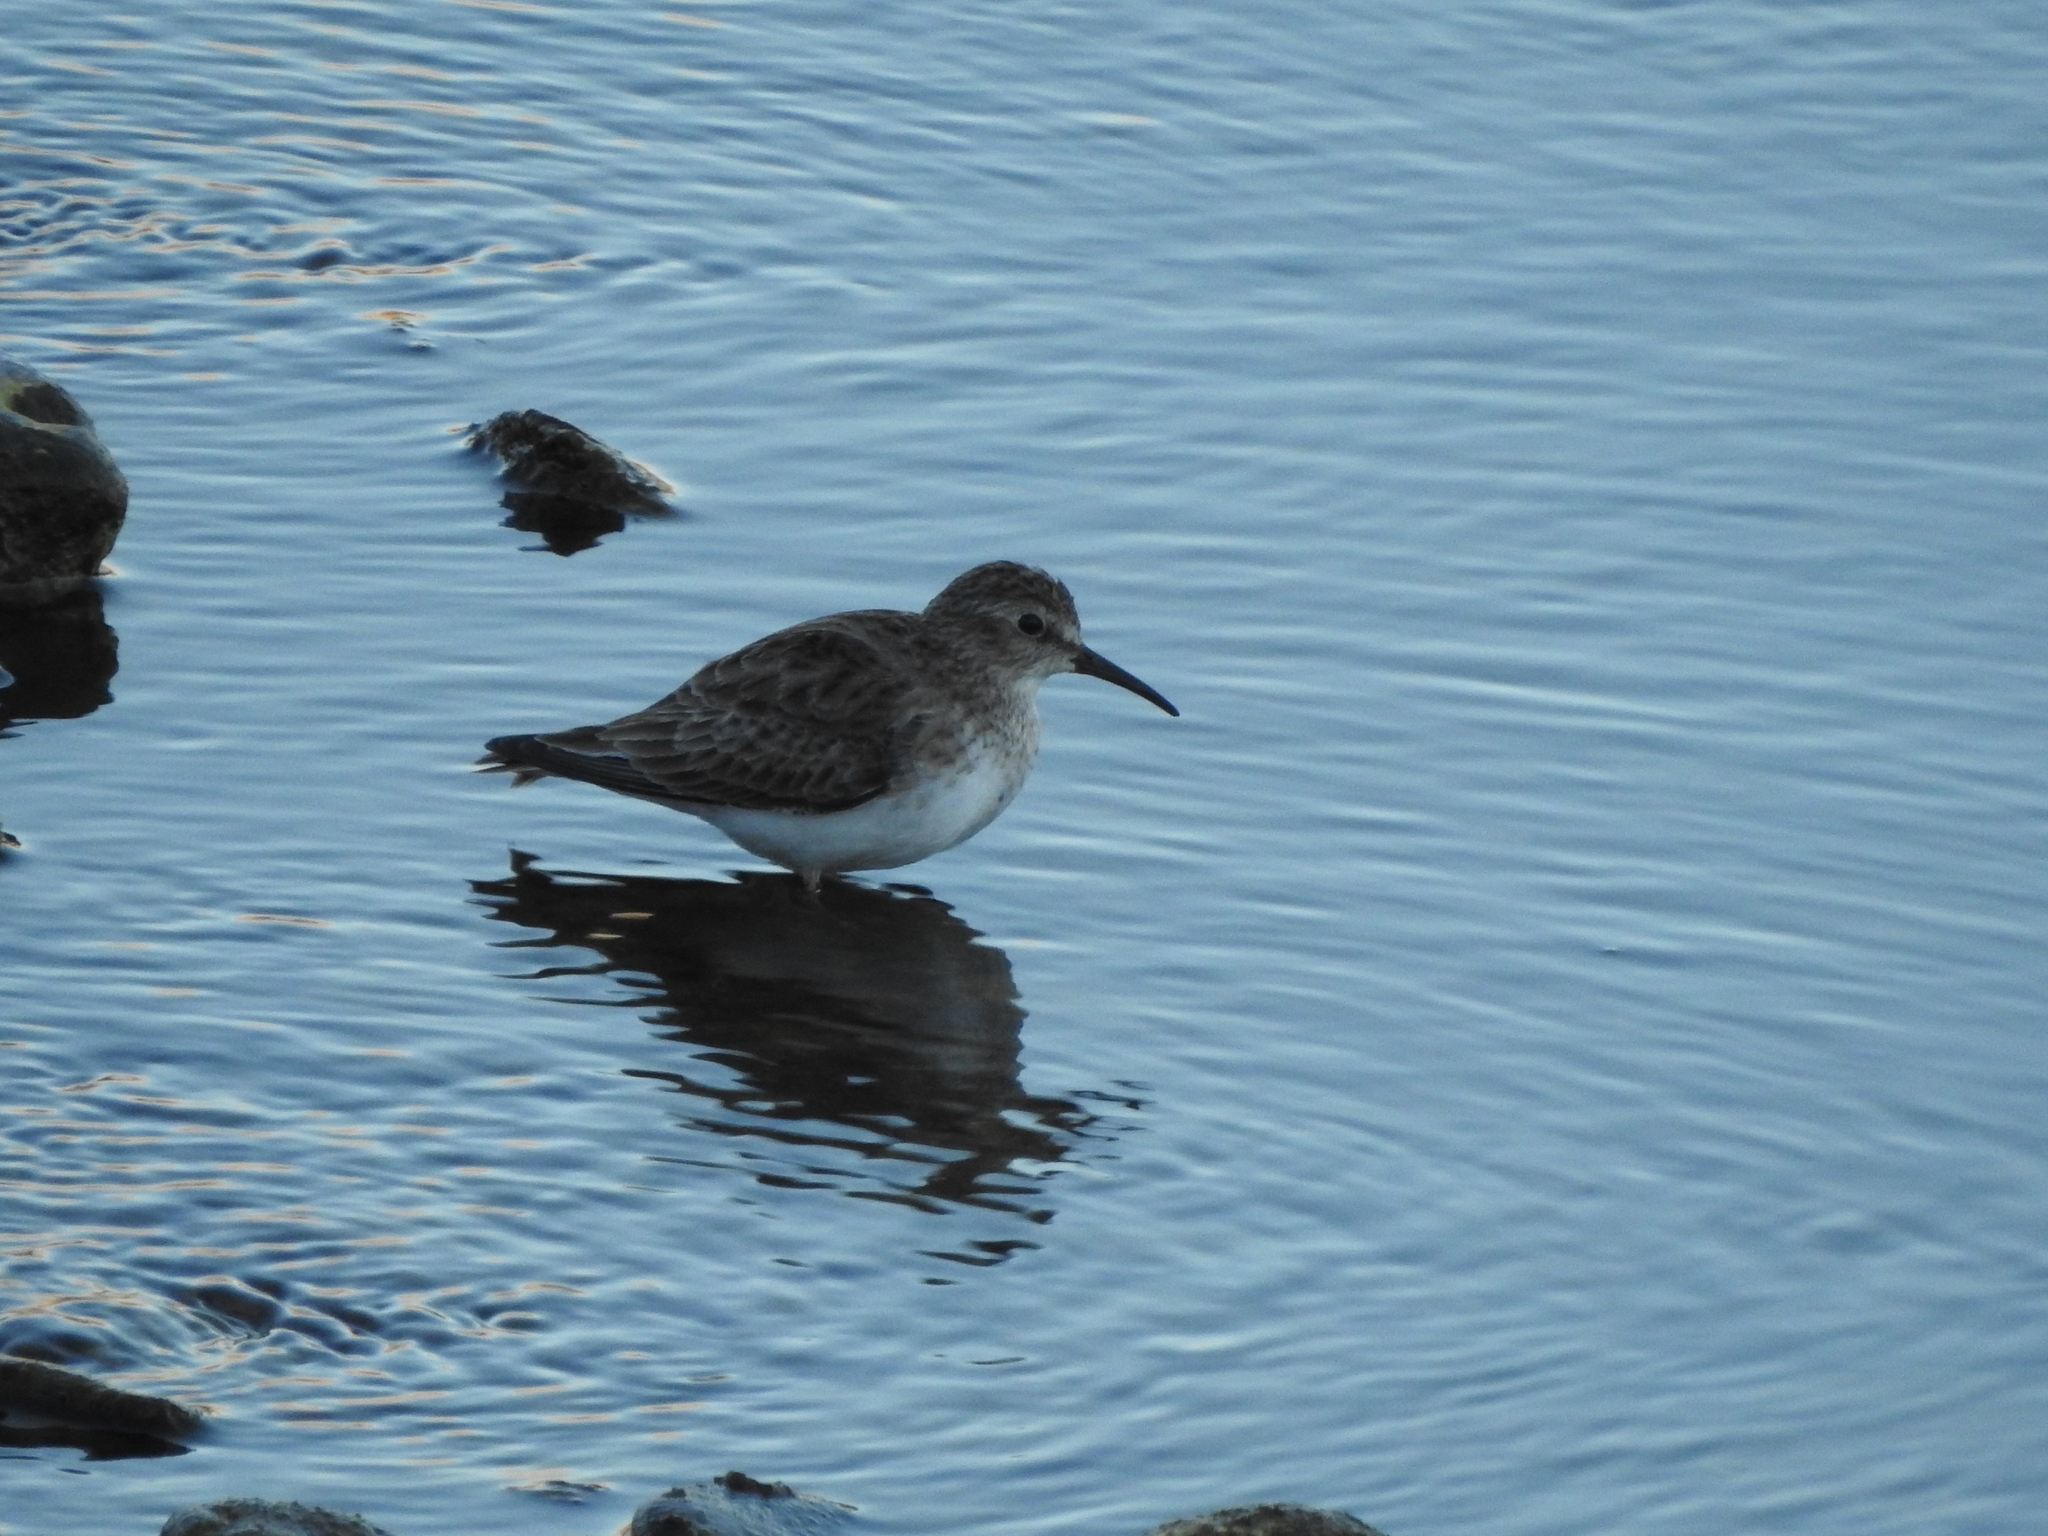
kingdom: Animalia
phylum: Chordata
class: Aves
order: Charadriiformes
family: Scolopacidae
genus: Calidris
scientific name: Calidris minutilla
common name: Least sandpiper
